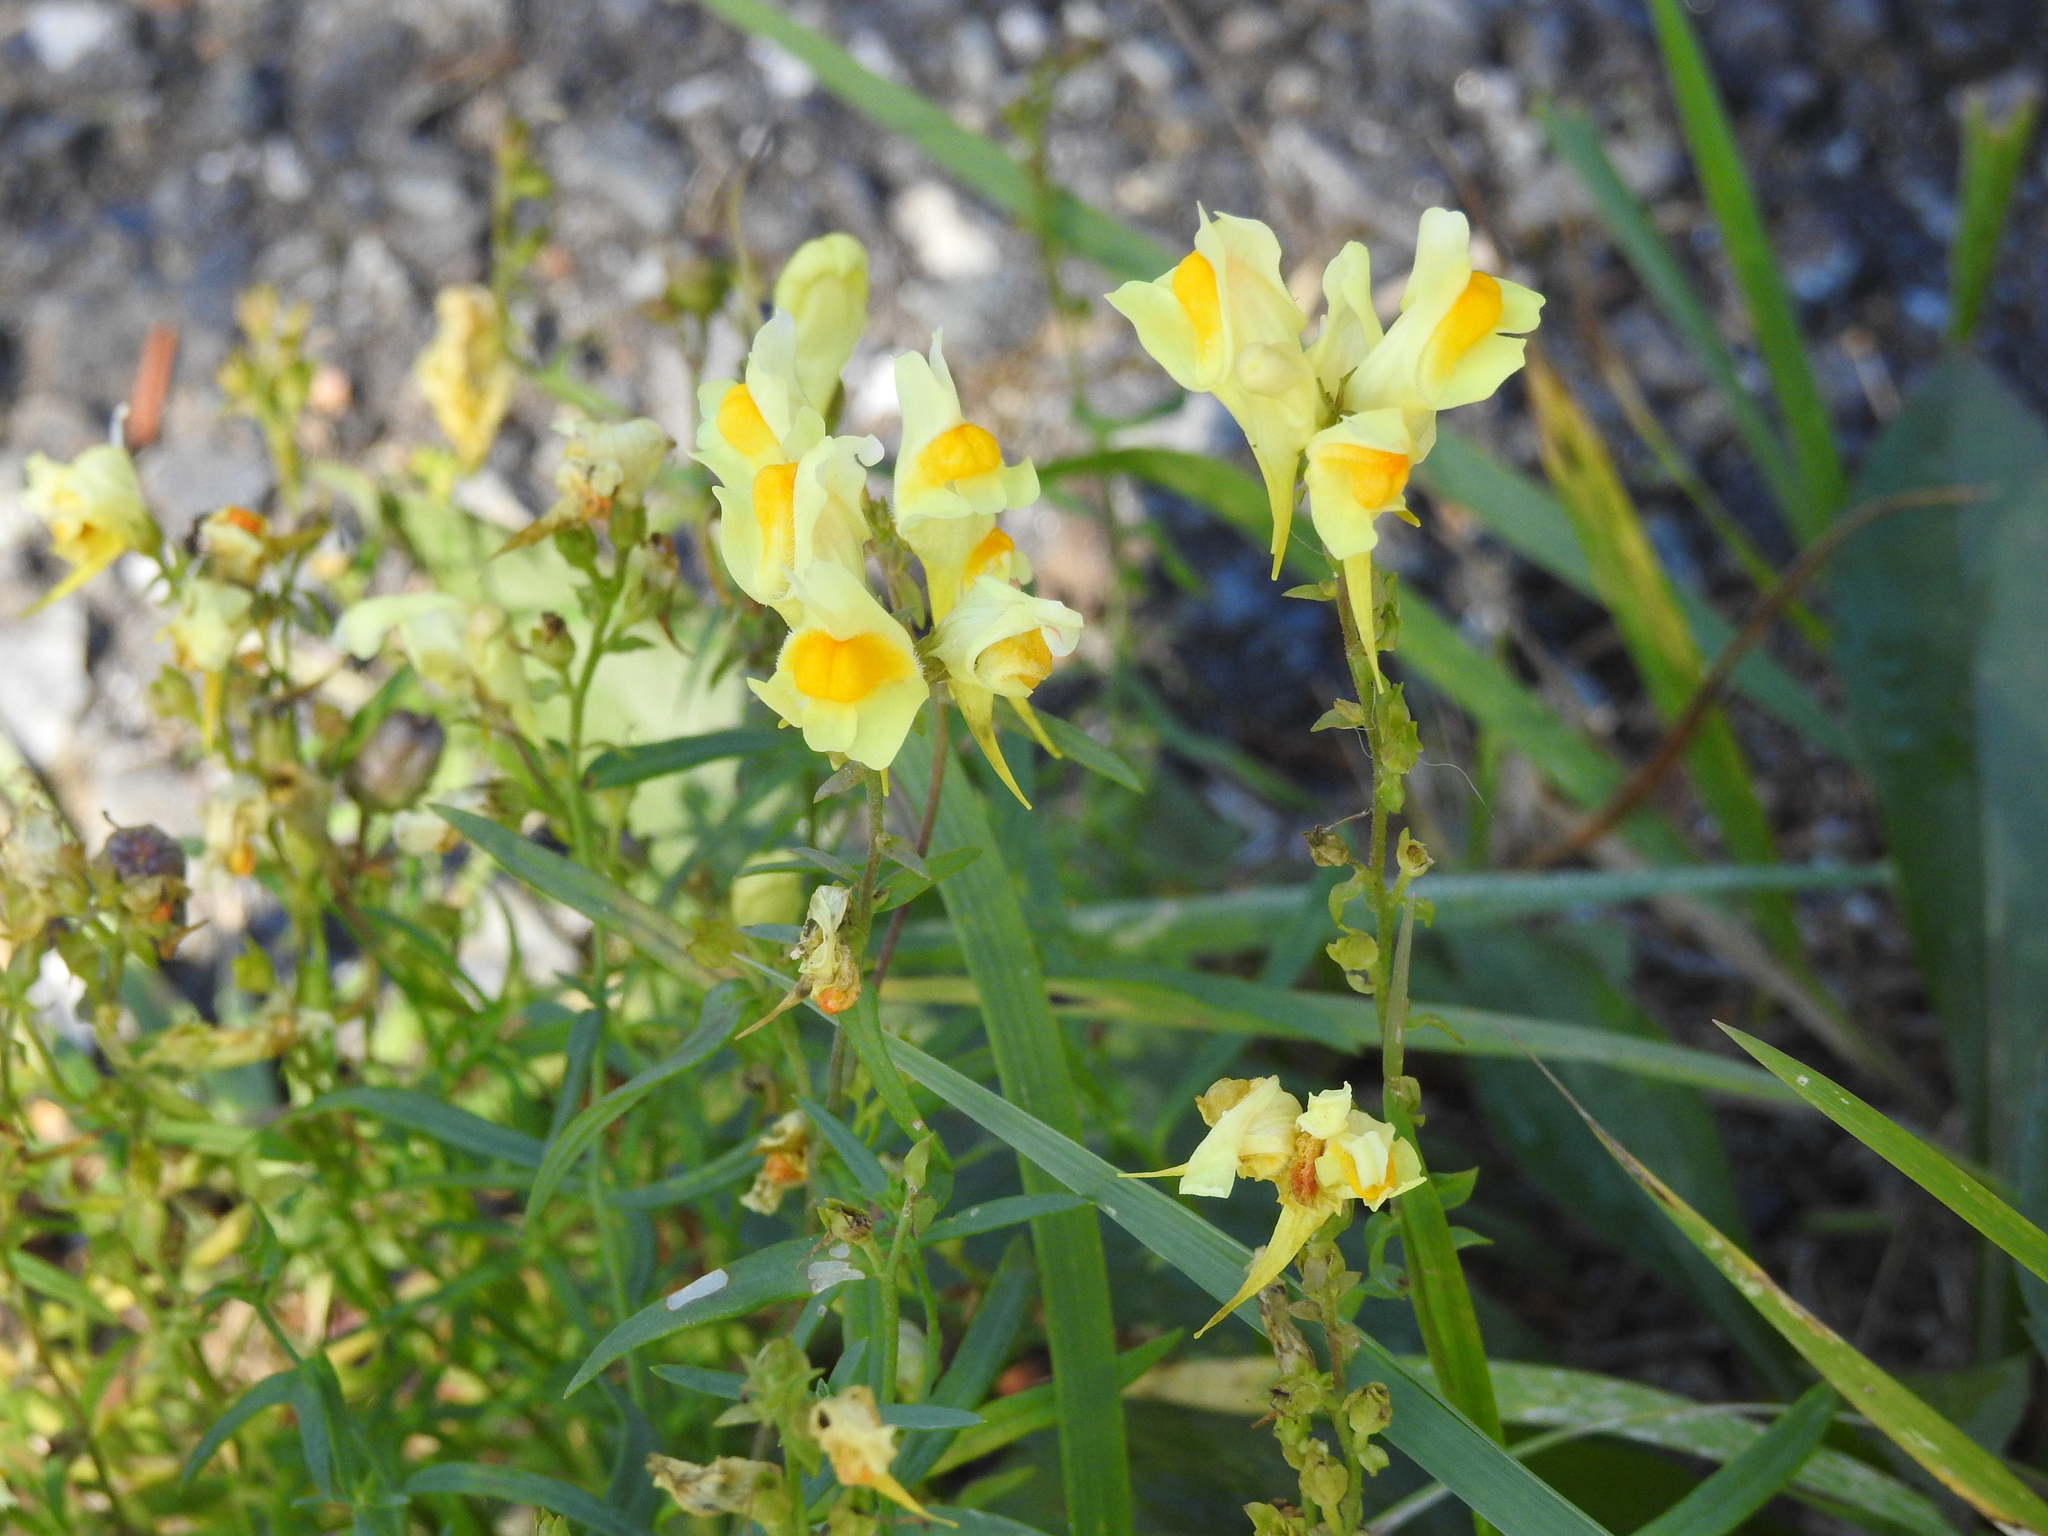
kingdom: Plantae
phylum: Tracheophyta
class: Magnoliopsida
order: Lamiales
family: Plantaginaceae
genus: Linaria
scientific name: Linaria vulgaris
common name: Butter and eggs
